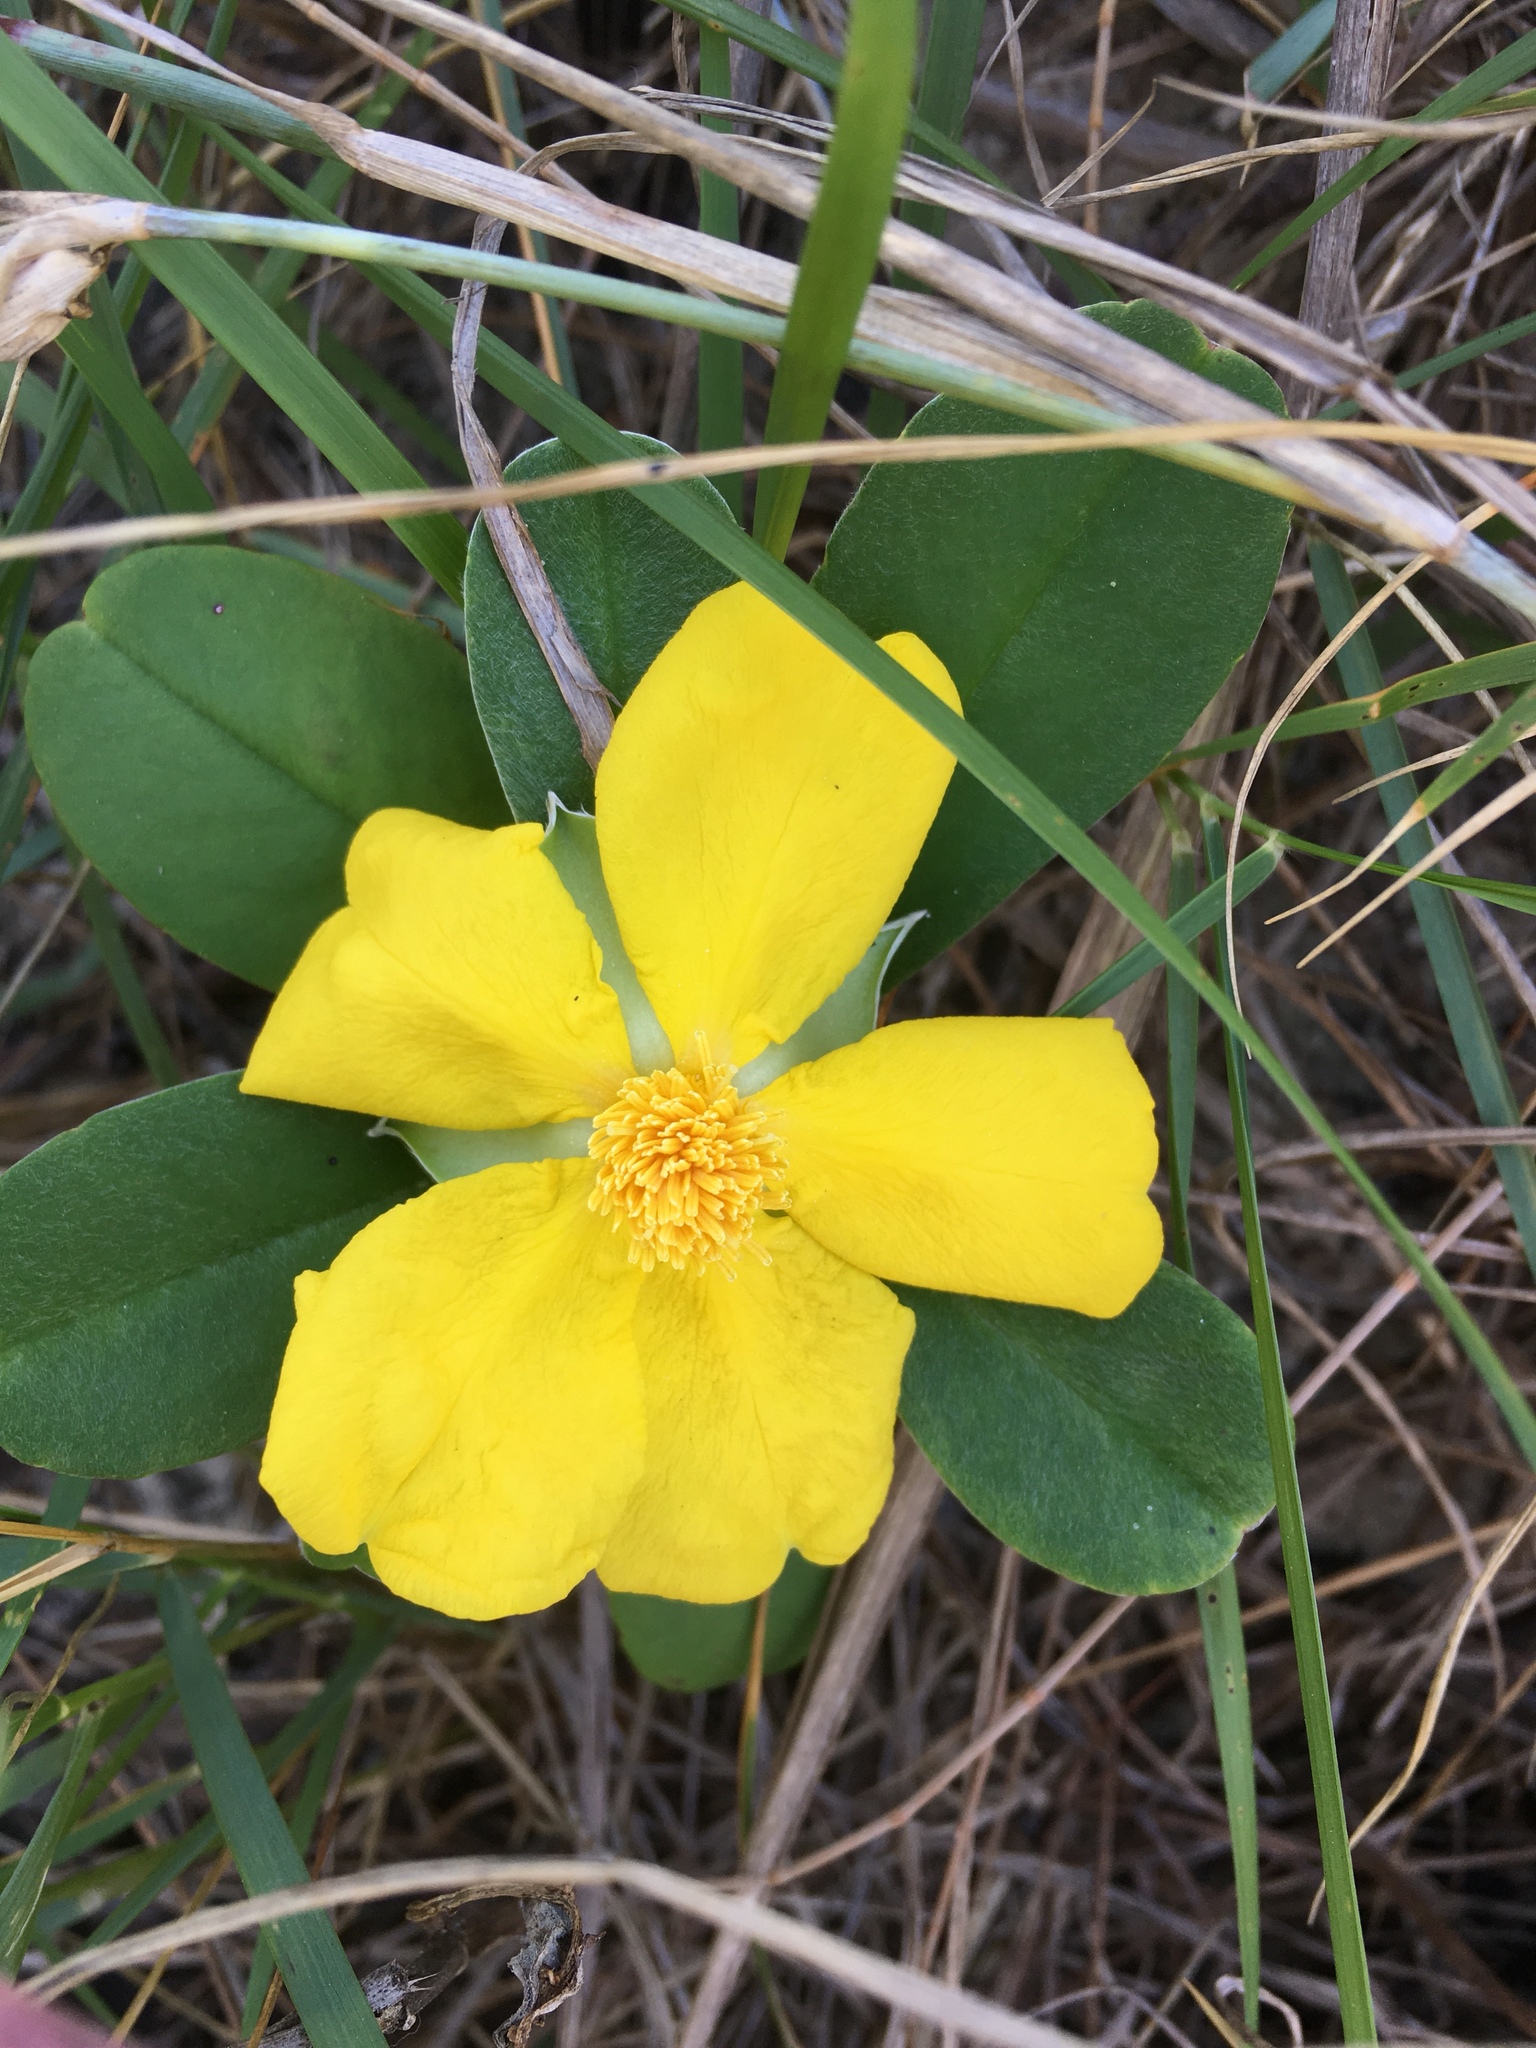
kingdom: Plantae
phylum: Tracheophyta
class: Magnoliopsida
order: Dilleniales
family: Dilleniaceae
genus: Hibbertia
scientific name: Hibbertia scandens
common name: Climbing guinea-flower
